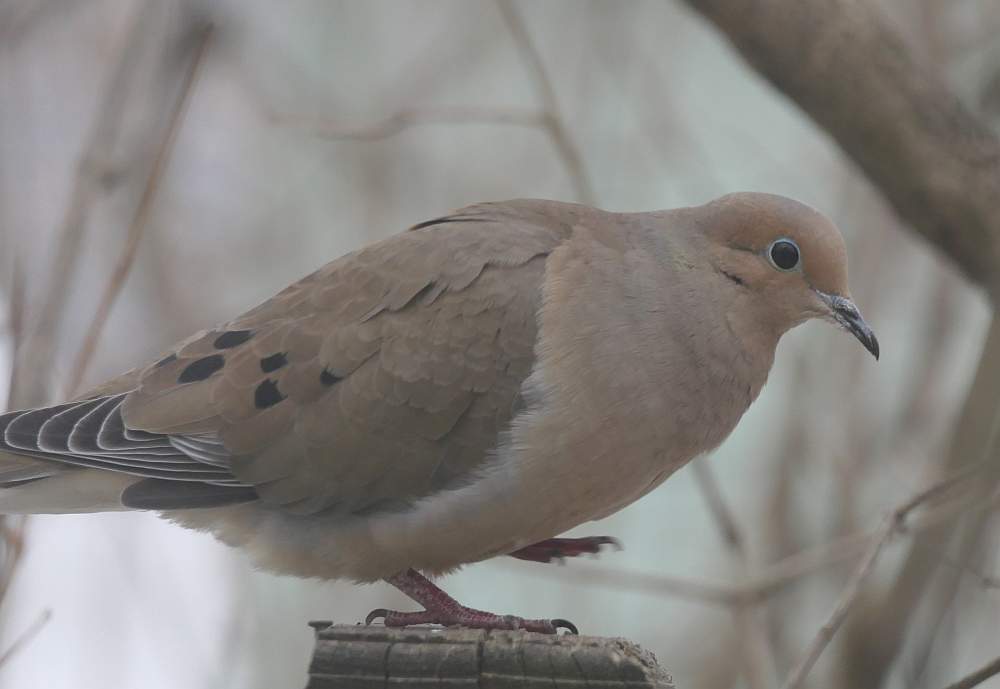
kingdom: Animalia
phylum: Chordata
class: Aves
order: Columbiformes
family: Columbidae
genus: Zenaida
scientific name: Zenaida macroura
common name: Mourning dove
